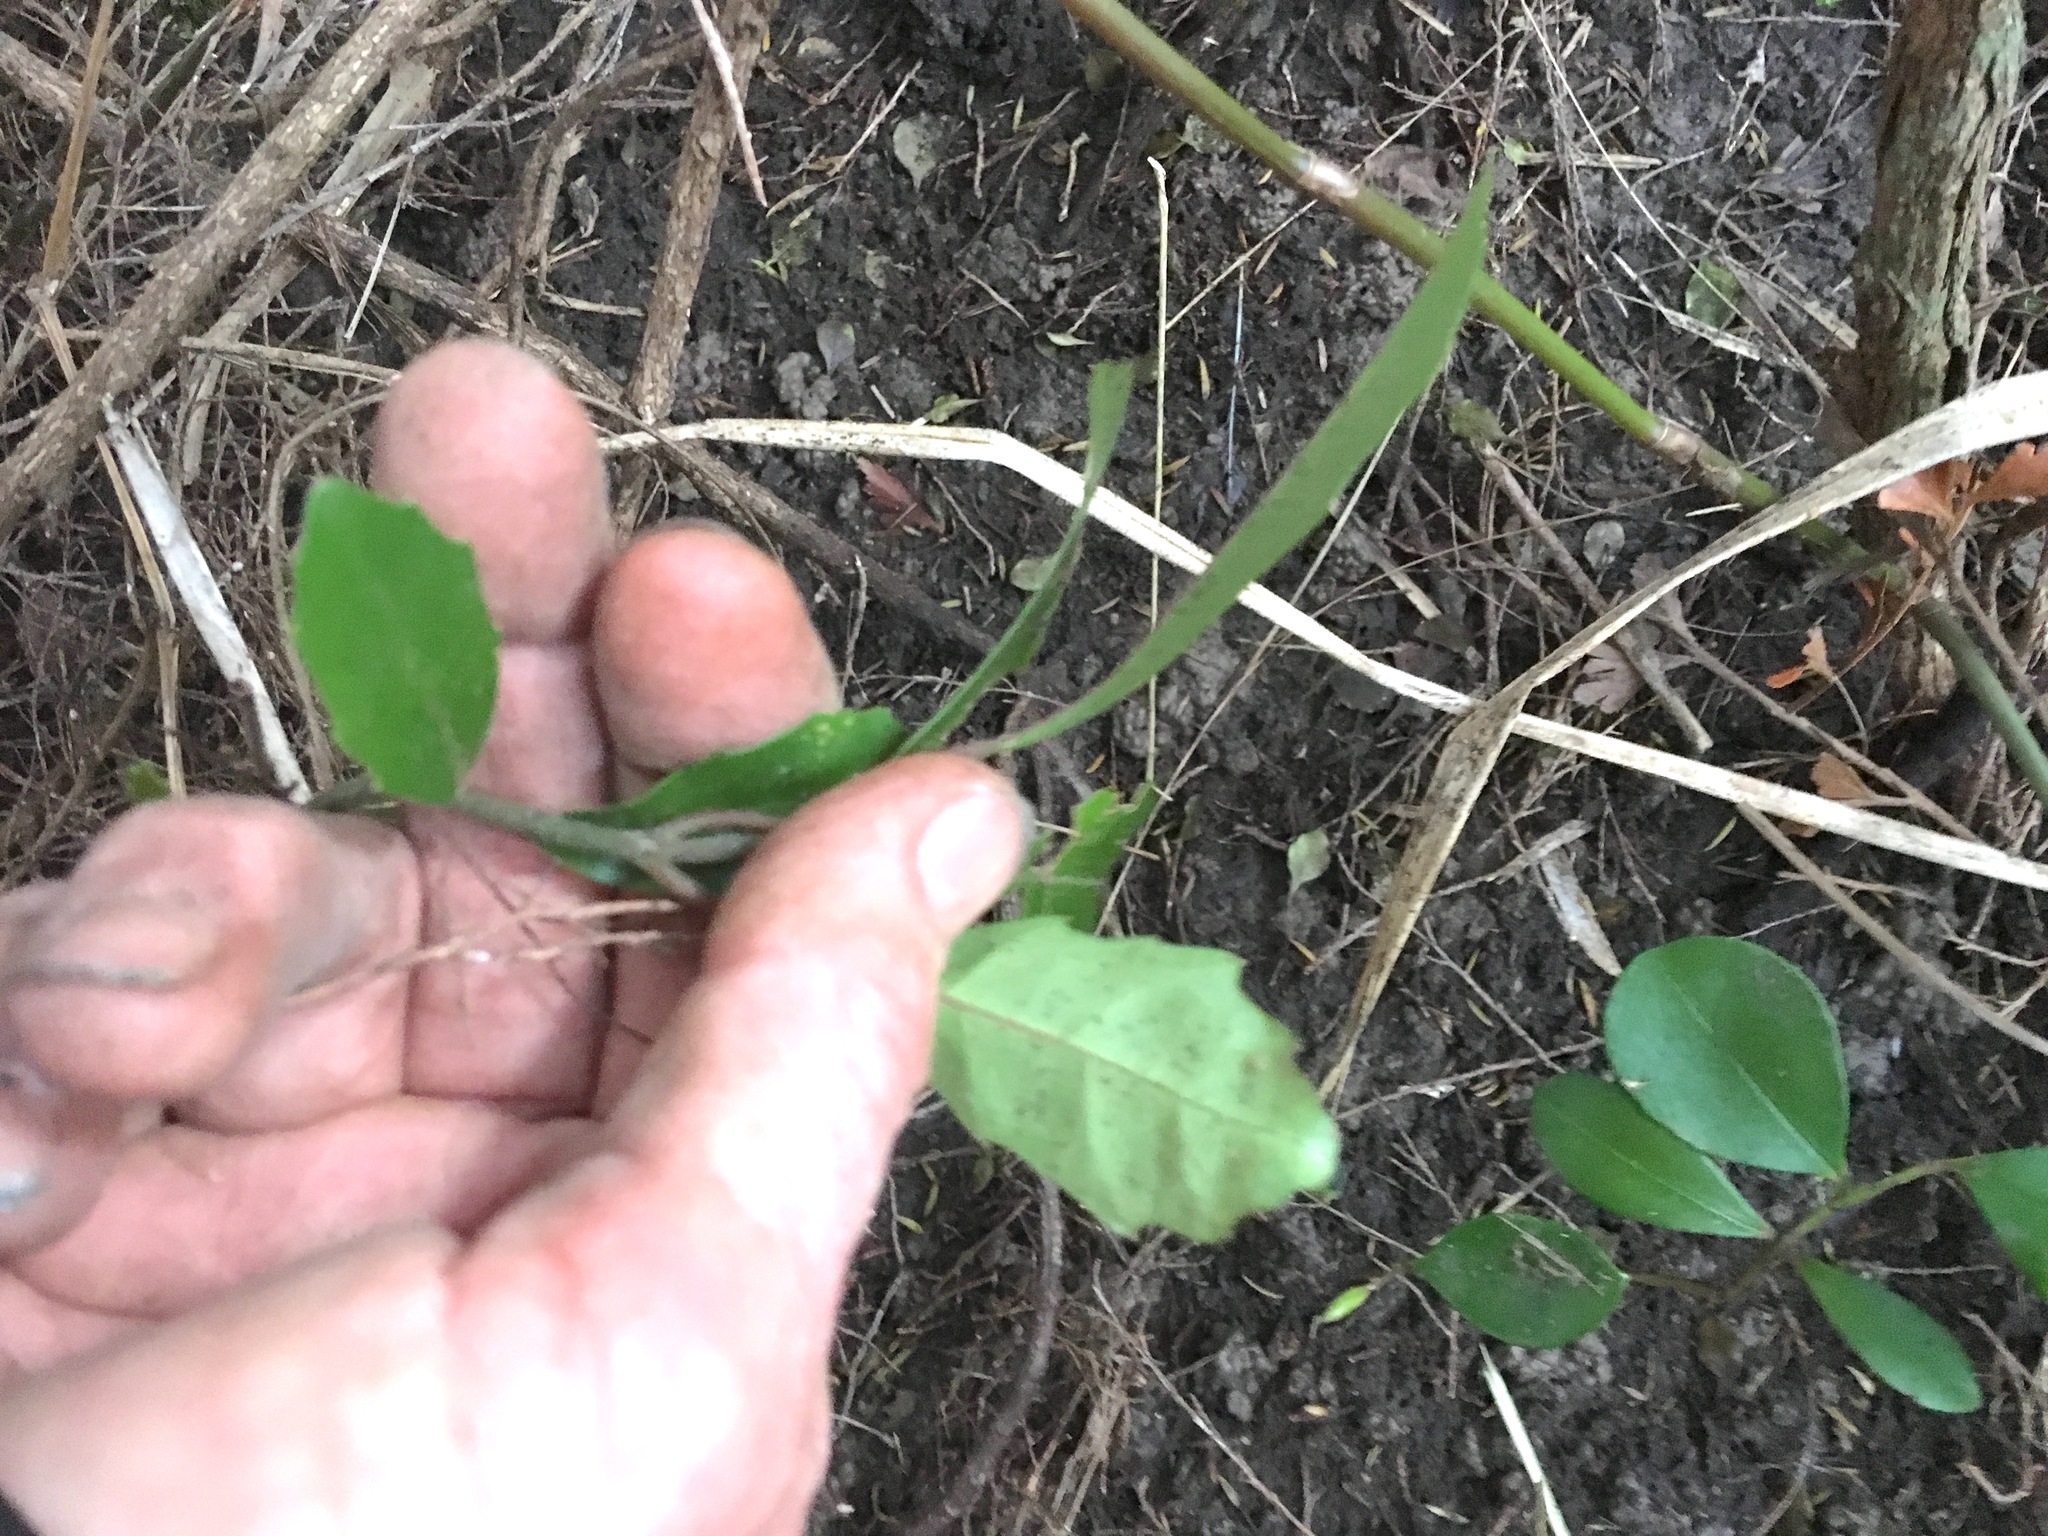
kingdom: Plantae
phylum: Tracheophyta
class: Magnoliopsida
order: Laurales
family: Monimiaceae
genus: Hedycarya
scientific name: Hedycarya arborea
